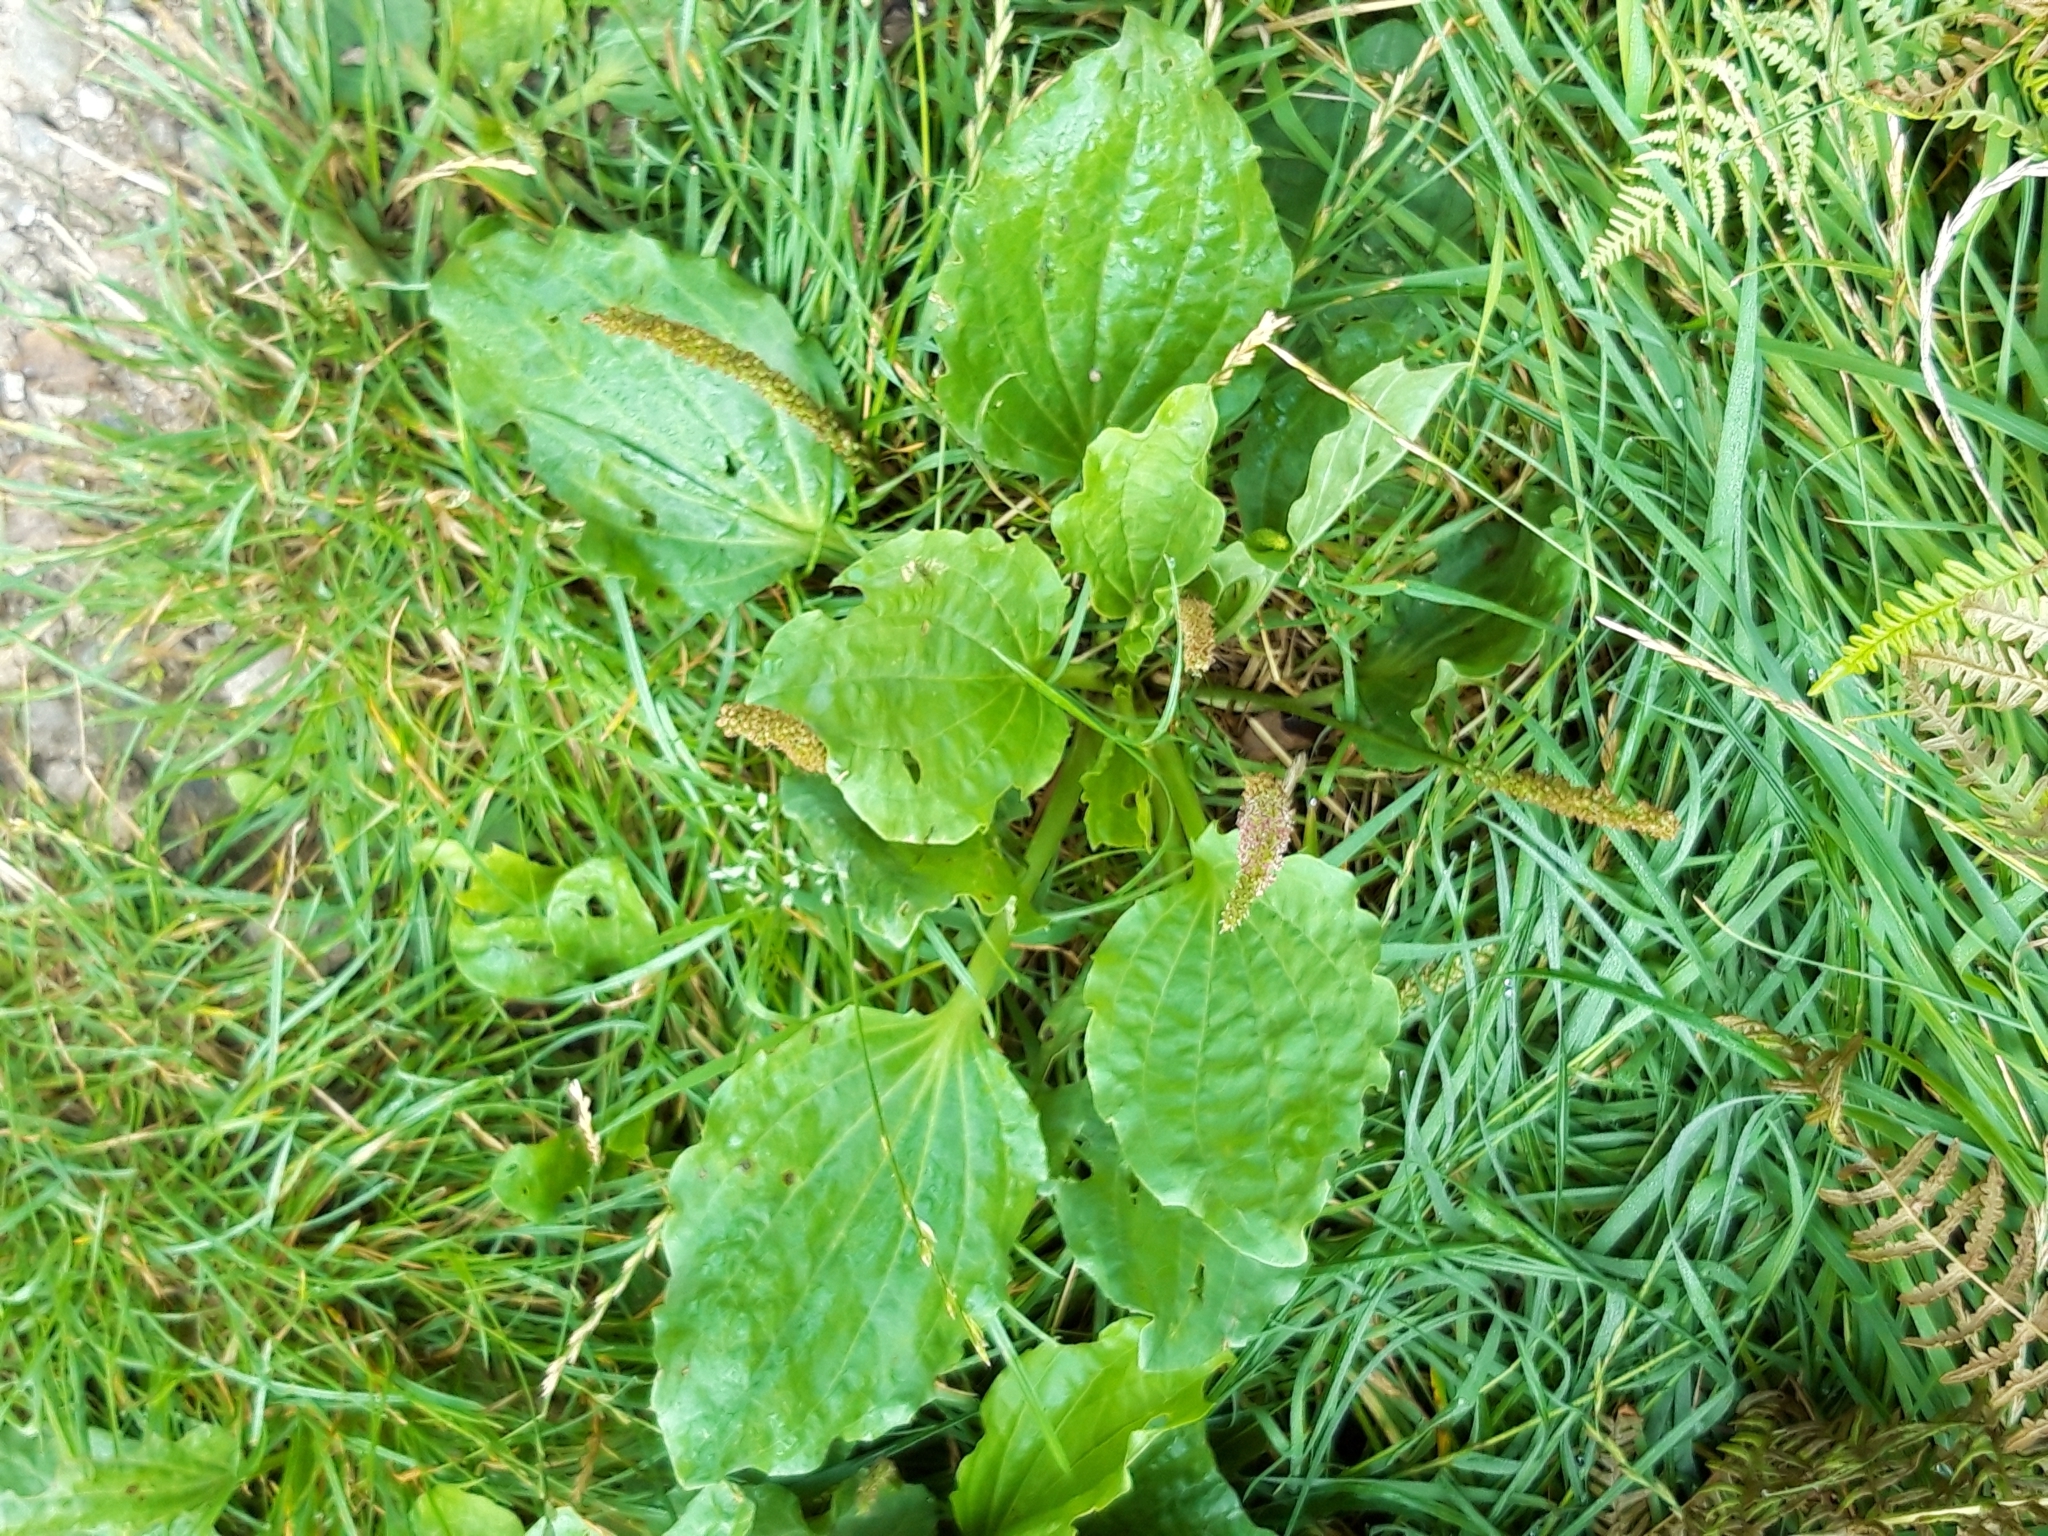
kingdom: Plantae
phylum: Tracheophyta
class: Magnoliopsida
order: Lamiales
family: Plantaginaceae
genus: Plantago
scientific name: Plantago major
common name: Common plantain
